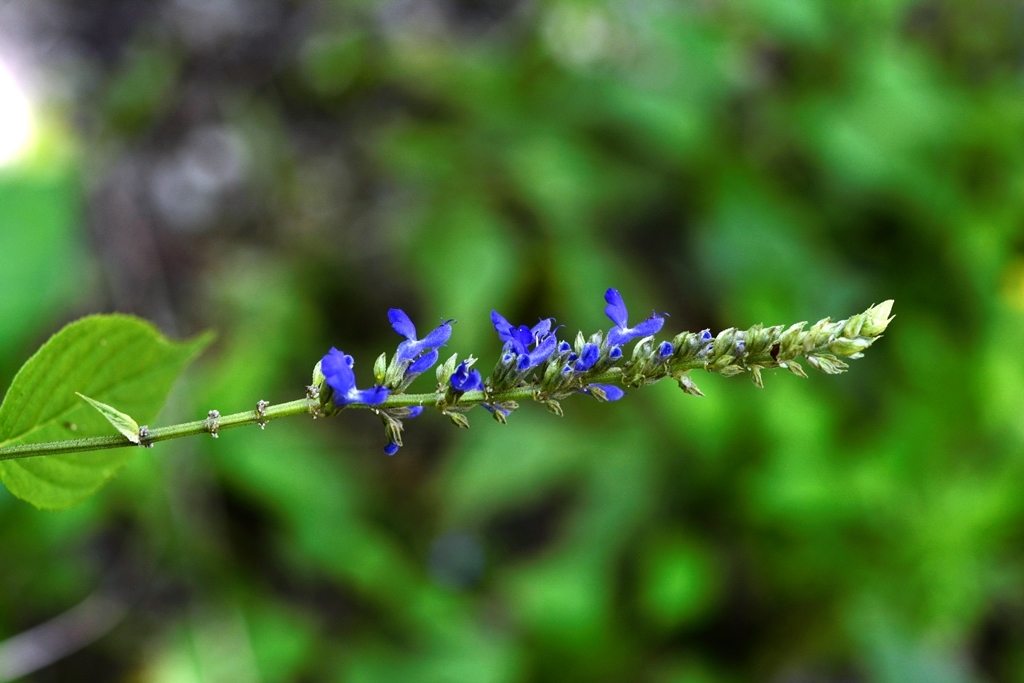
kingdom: Plantae
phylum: Tracheophyta
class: Magnoliopsida
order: Lamiales
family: Lamiaceae
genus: Salvia
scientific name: Salvia connivens
